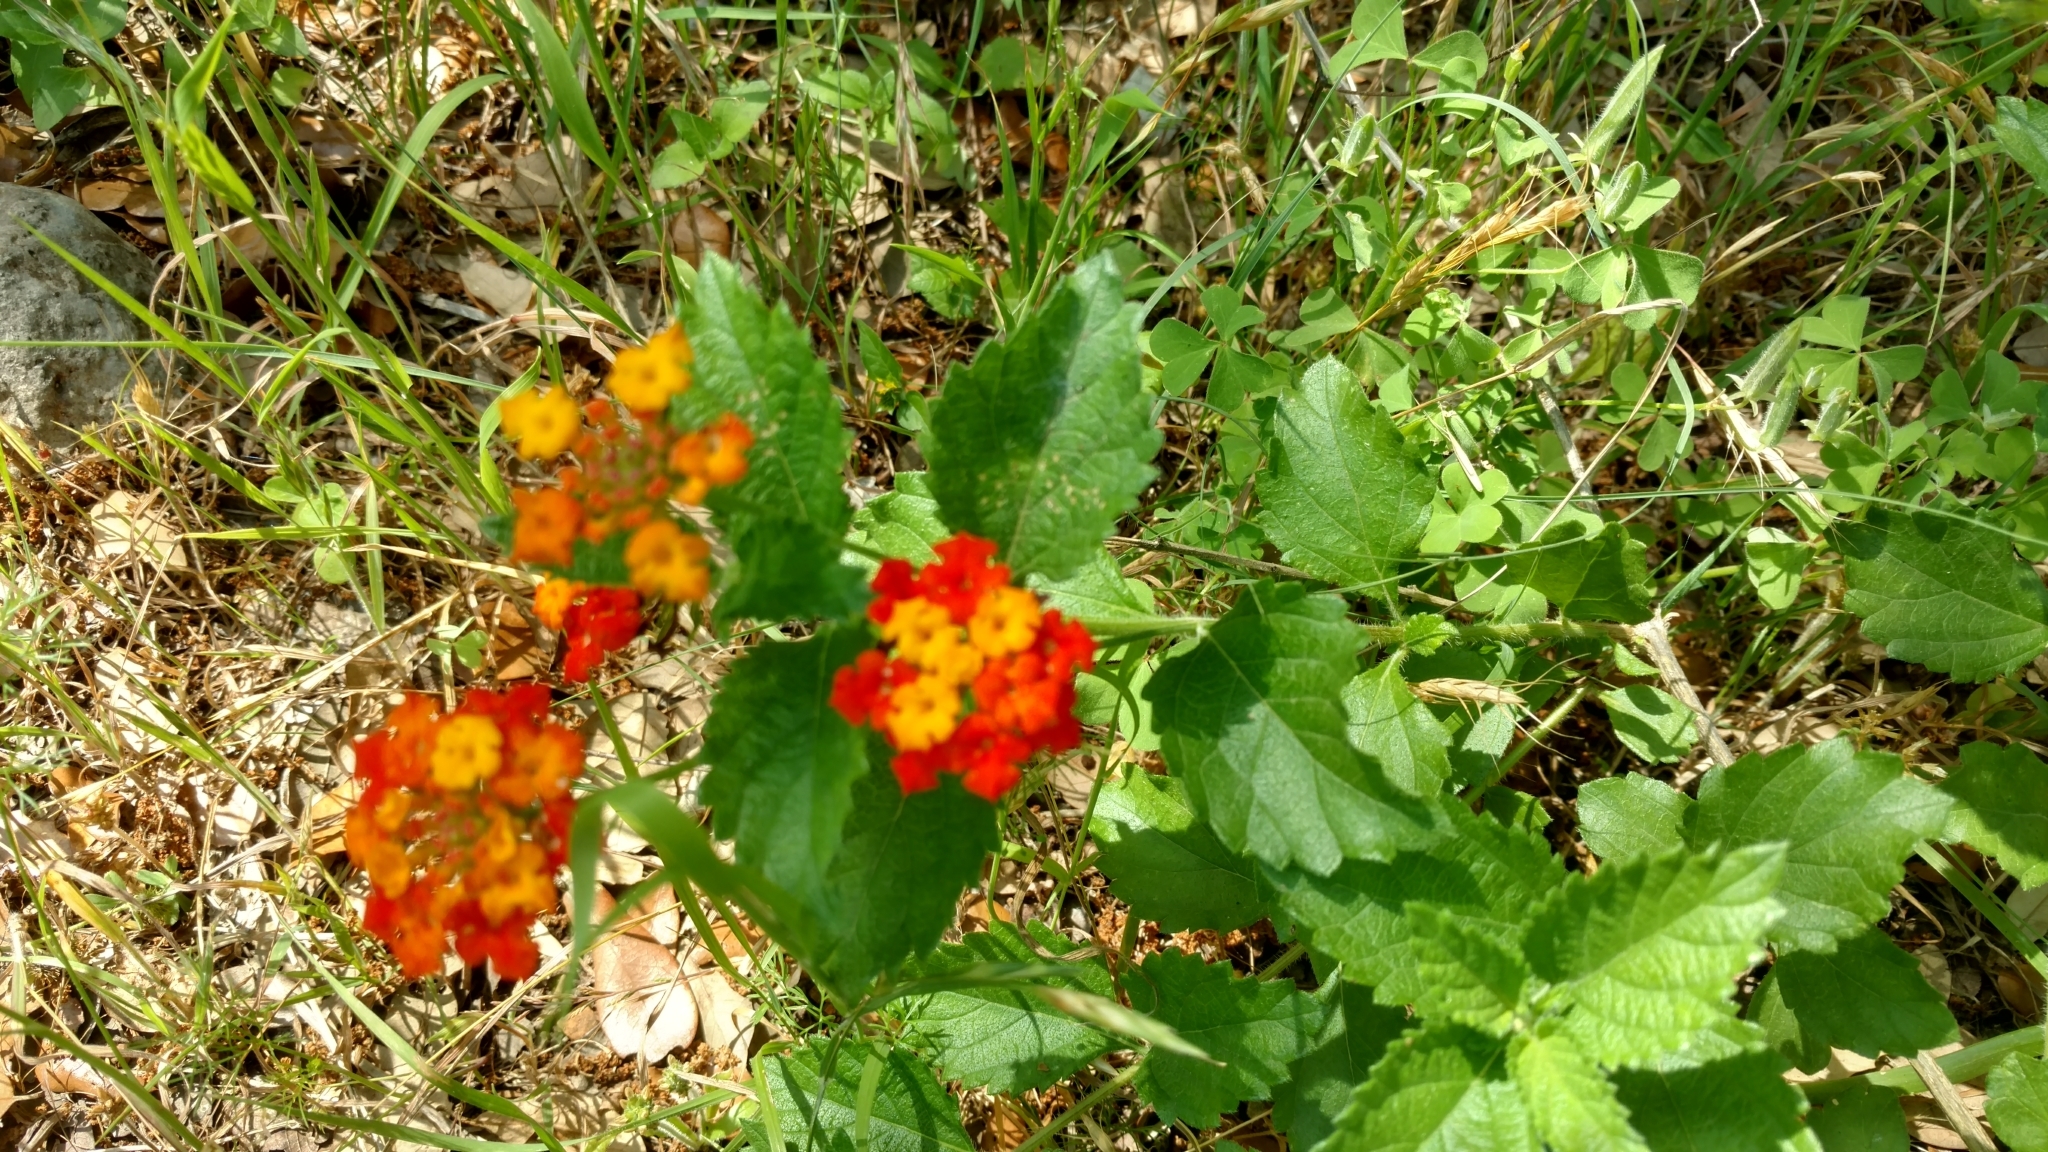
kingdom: Plantae
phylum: Tracheophyta
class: Magnoliopsida
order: Lamiales
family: Verbenaceae
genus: Lantana
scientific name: Lantana urticoides
